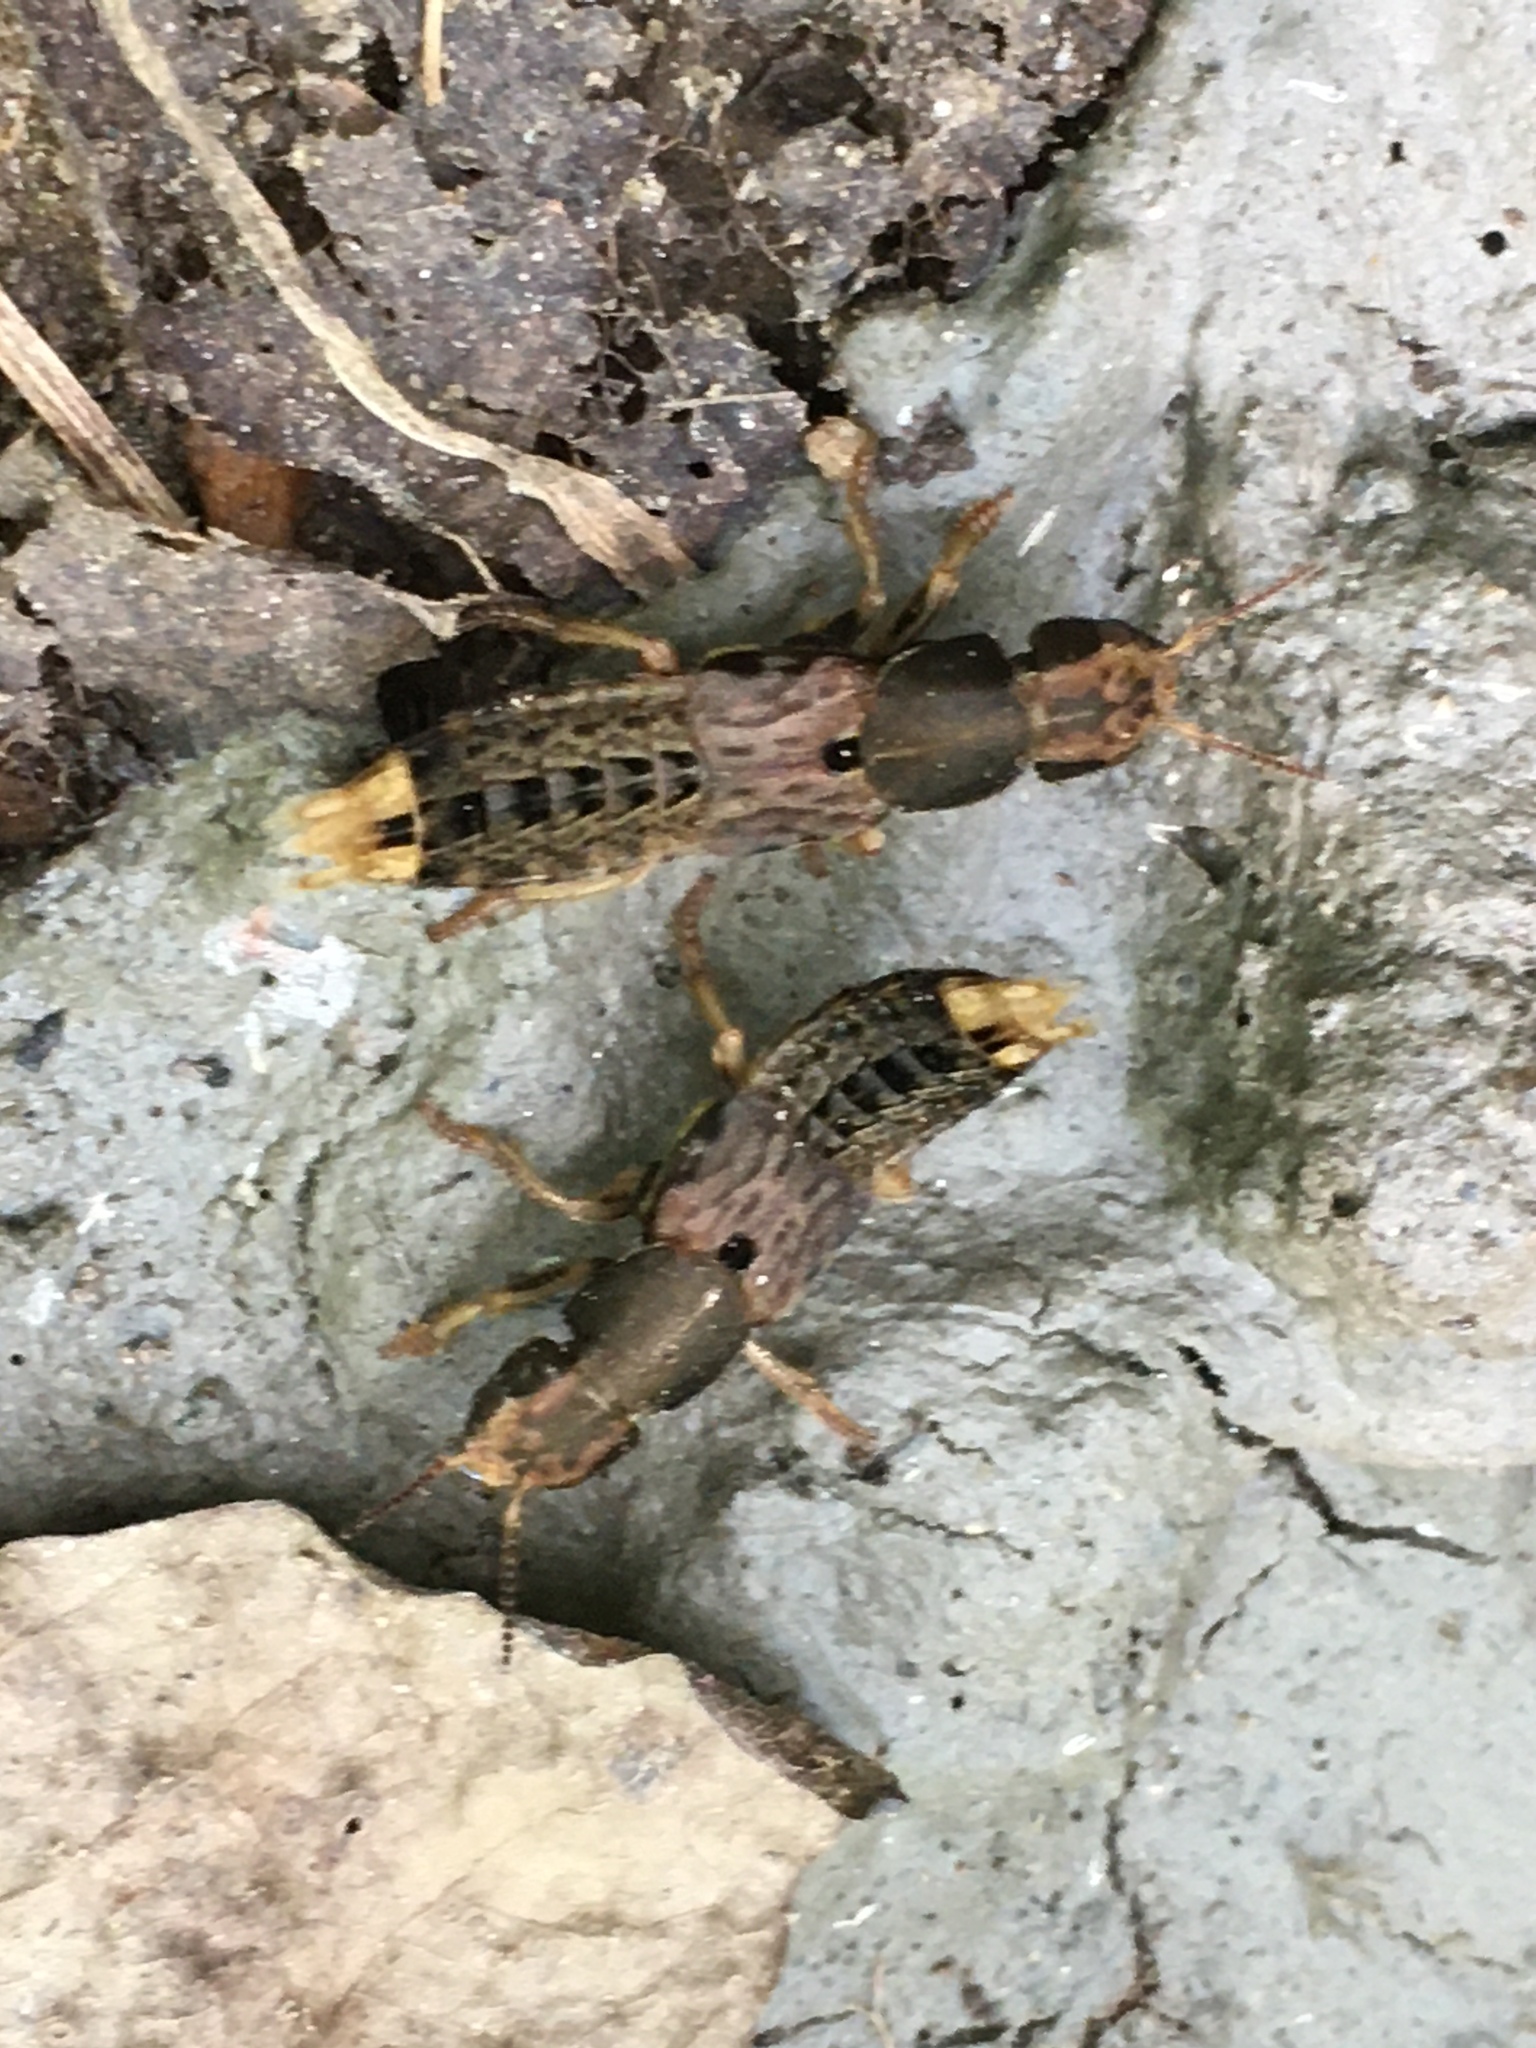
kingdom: Animalia
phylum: Arthropoda
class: Insecta
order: Coleoptera
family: Staphylinidae
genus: Platydracus
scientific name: Platydracus maculosus
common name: Brown rove beetle
